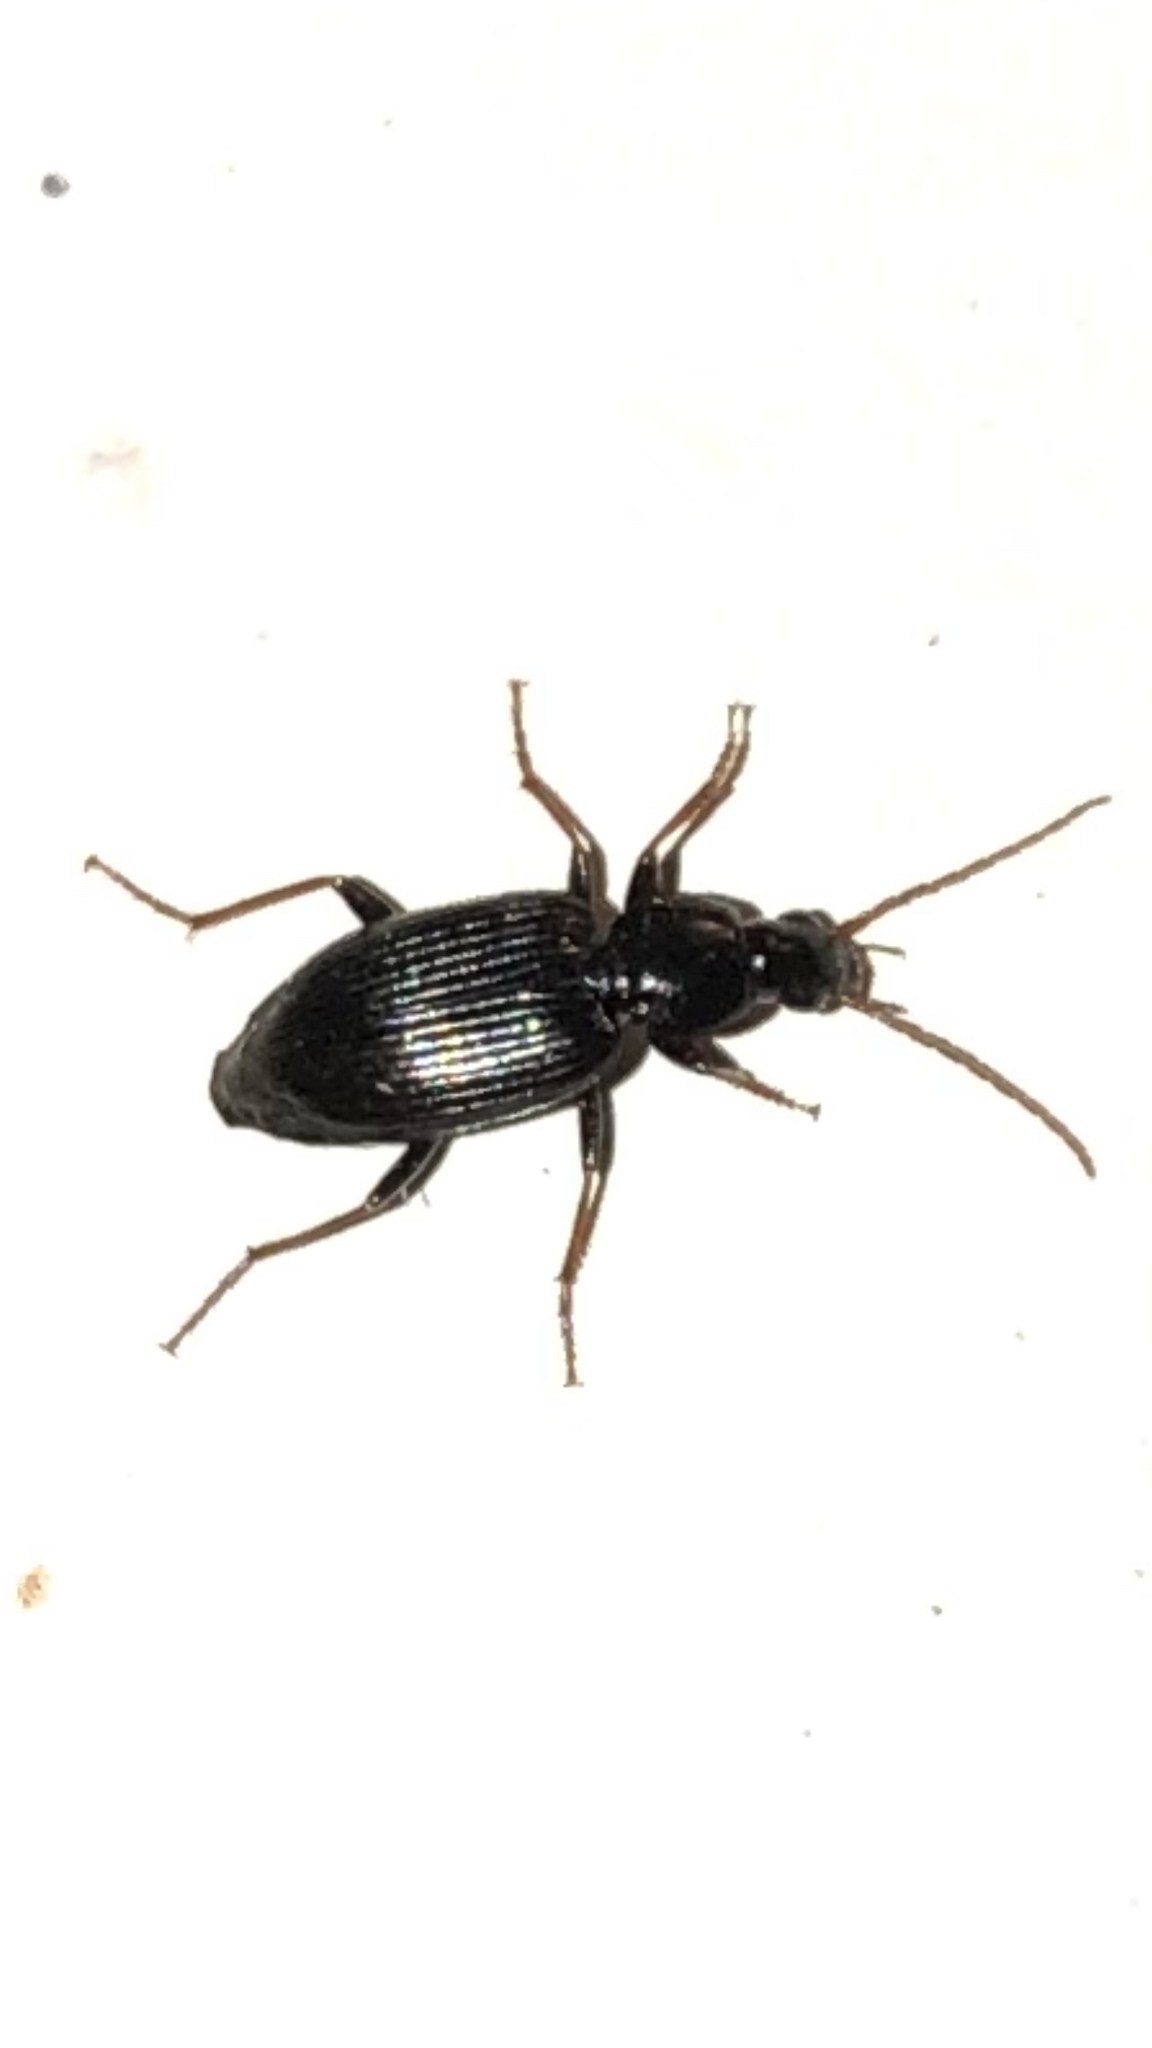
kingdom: Animalia
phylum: Arthropoda
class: Insecta
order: Coleoptera
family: Carabidae
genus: Agonum
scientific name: Agonum punctiforme
